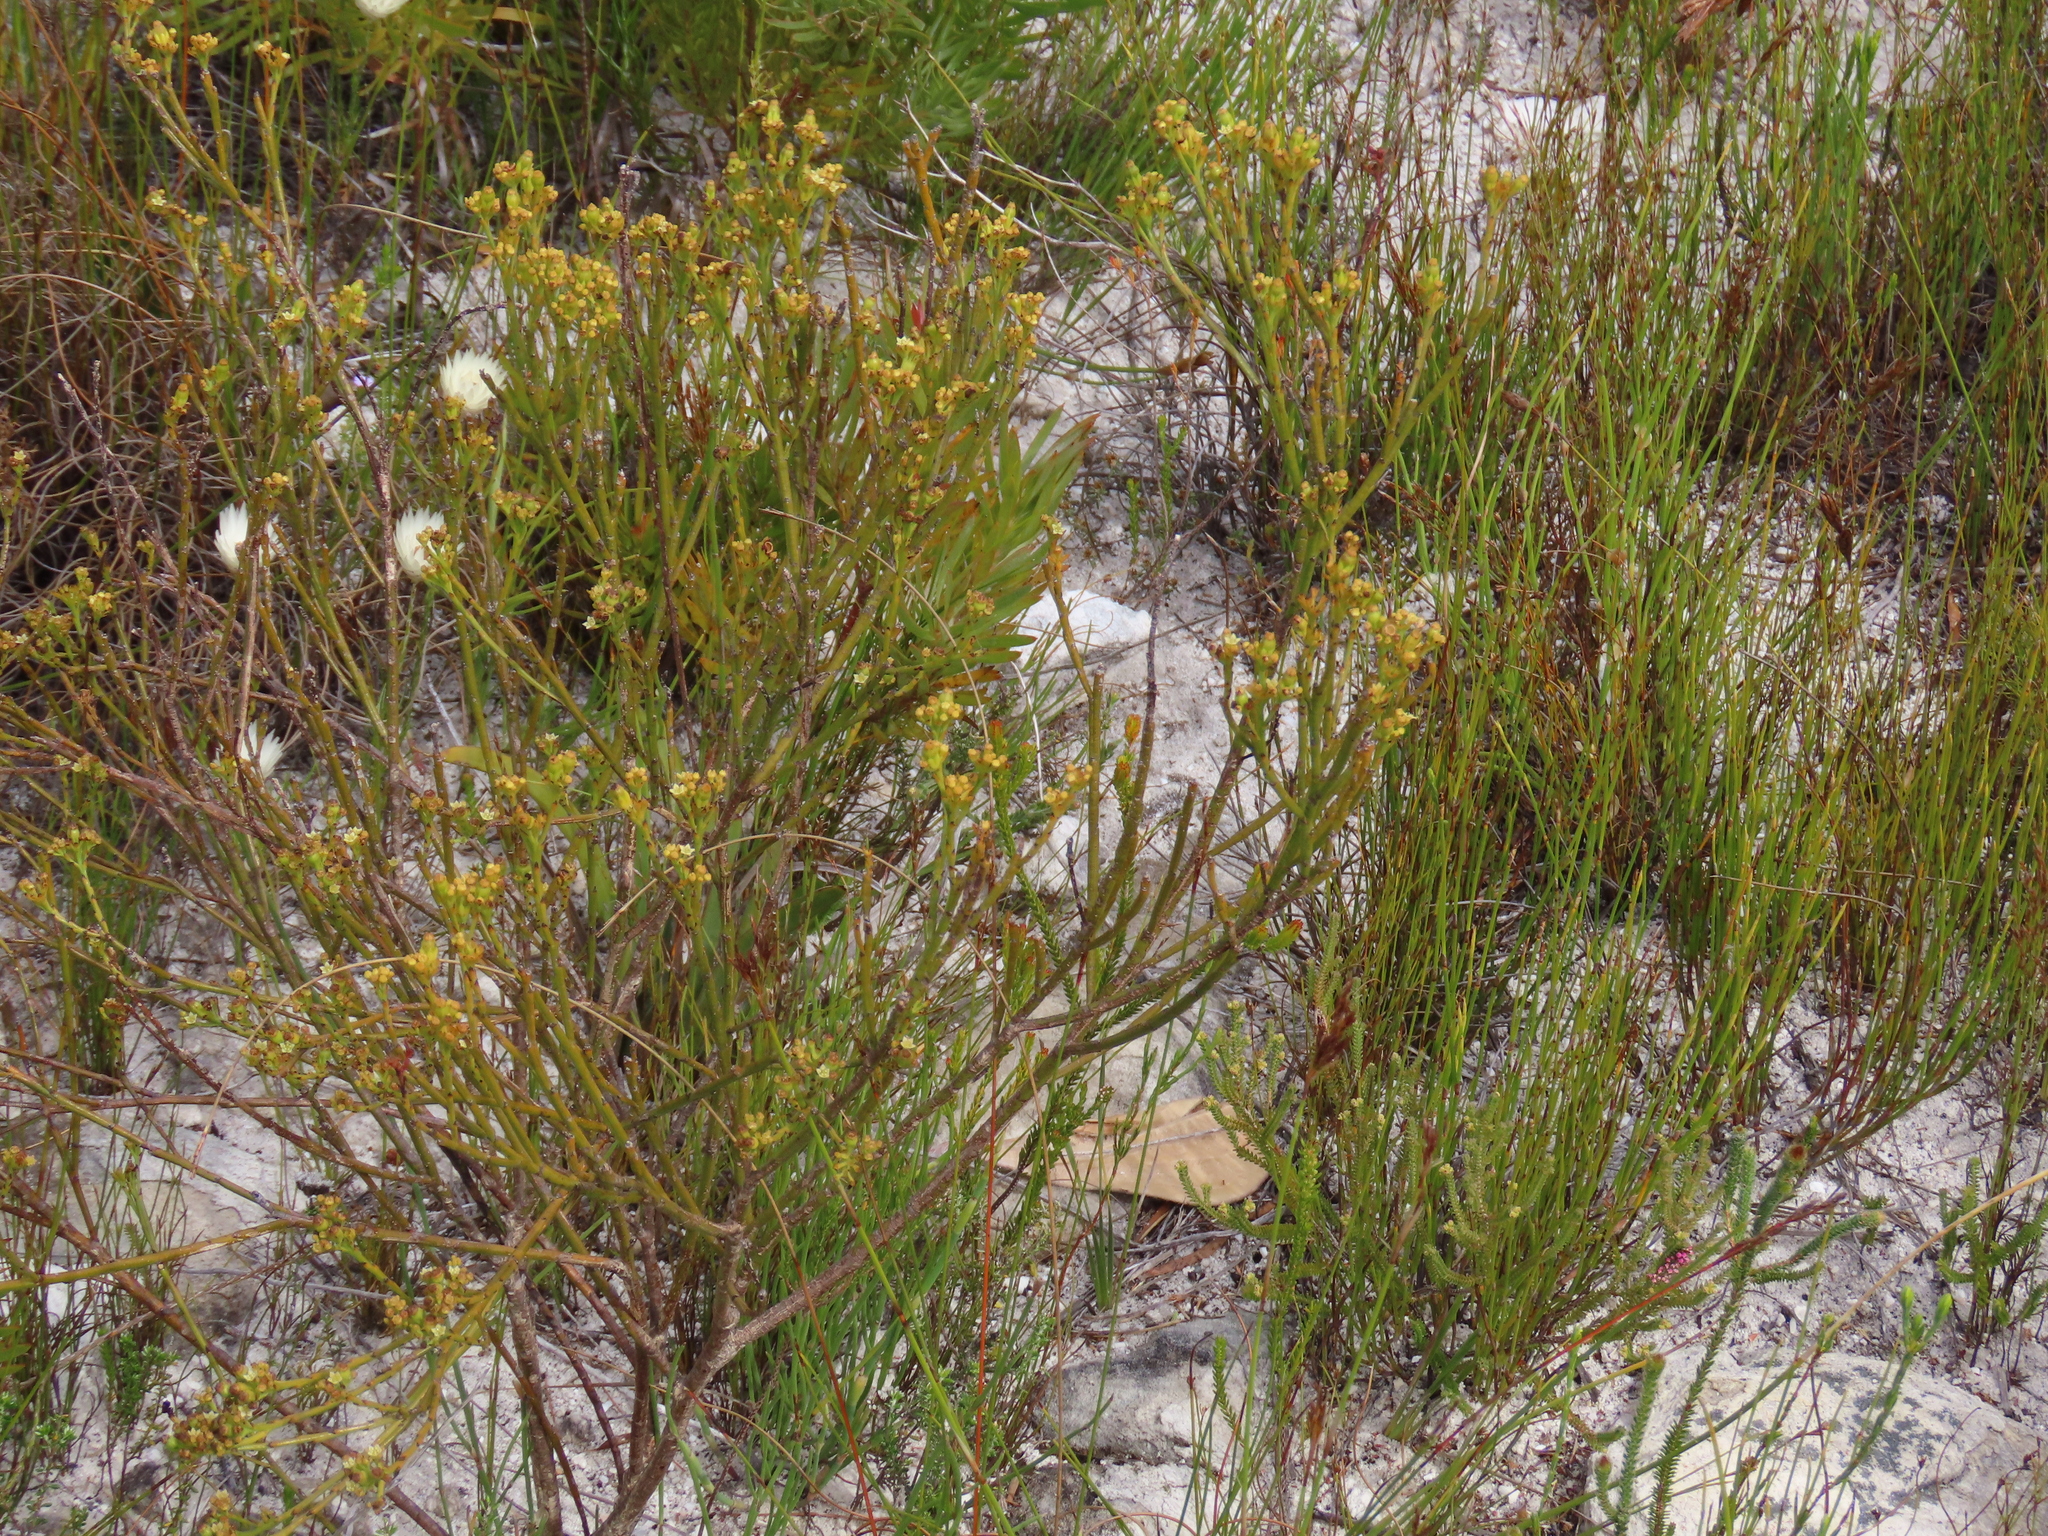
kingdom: Plantae
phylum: Tracheophyta
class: Magnoliopsida
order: Santalales
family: Thesiaceae
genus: Thesium
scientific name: Thesium pseudovirgatum
